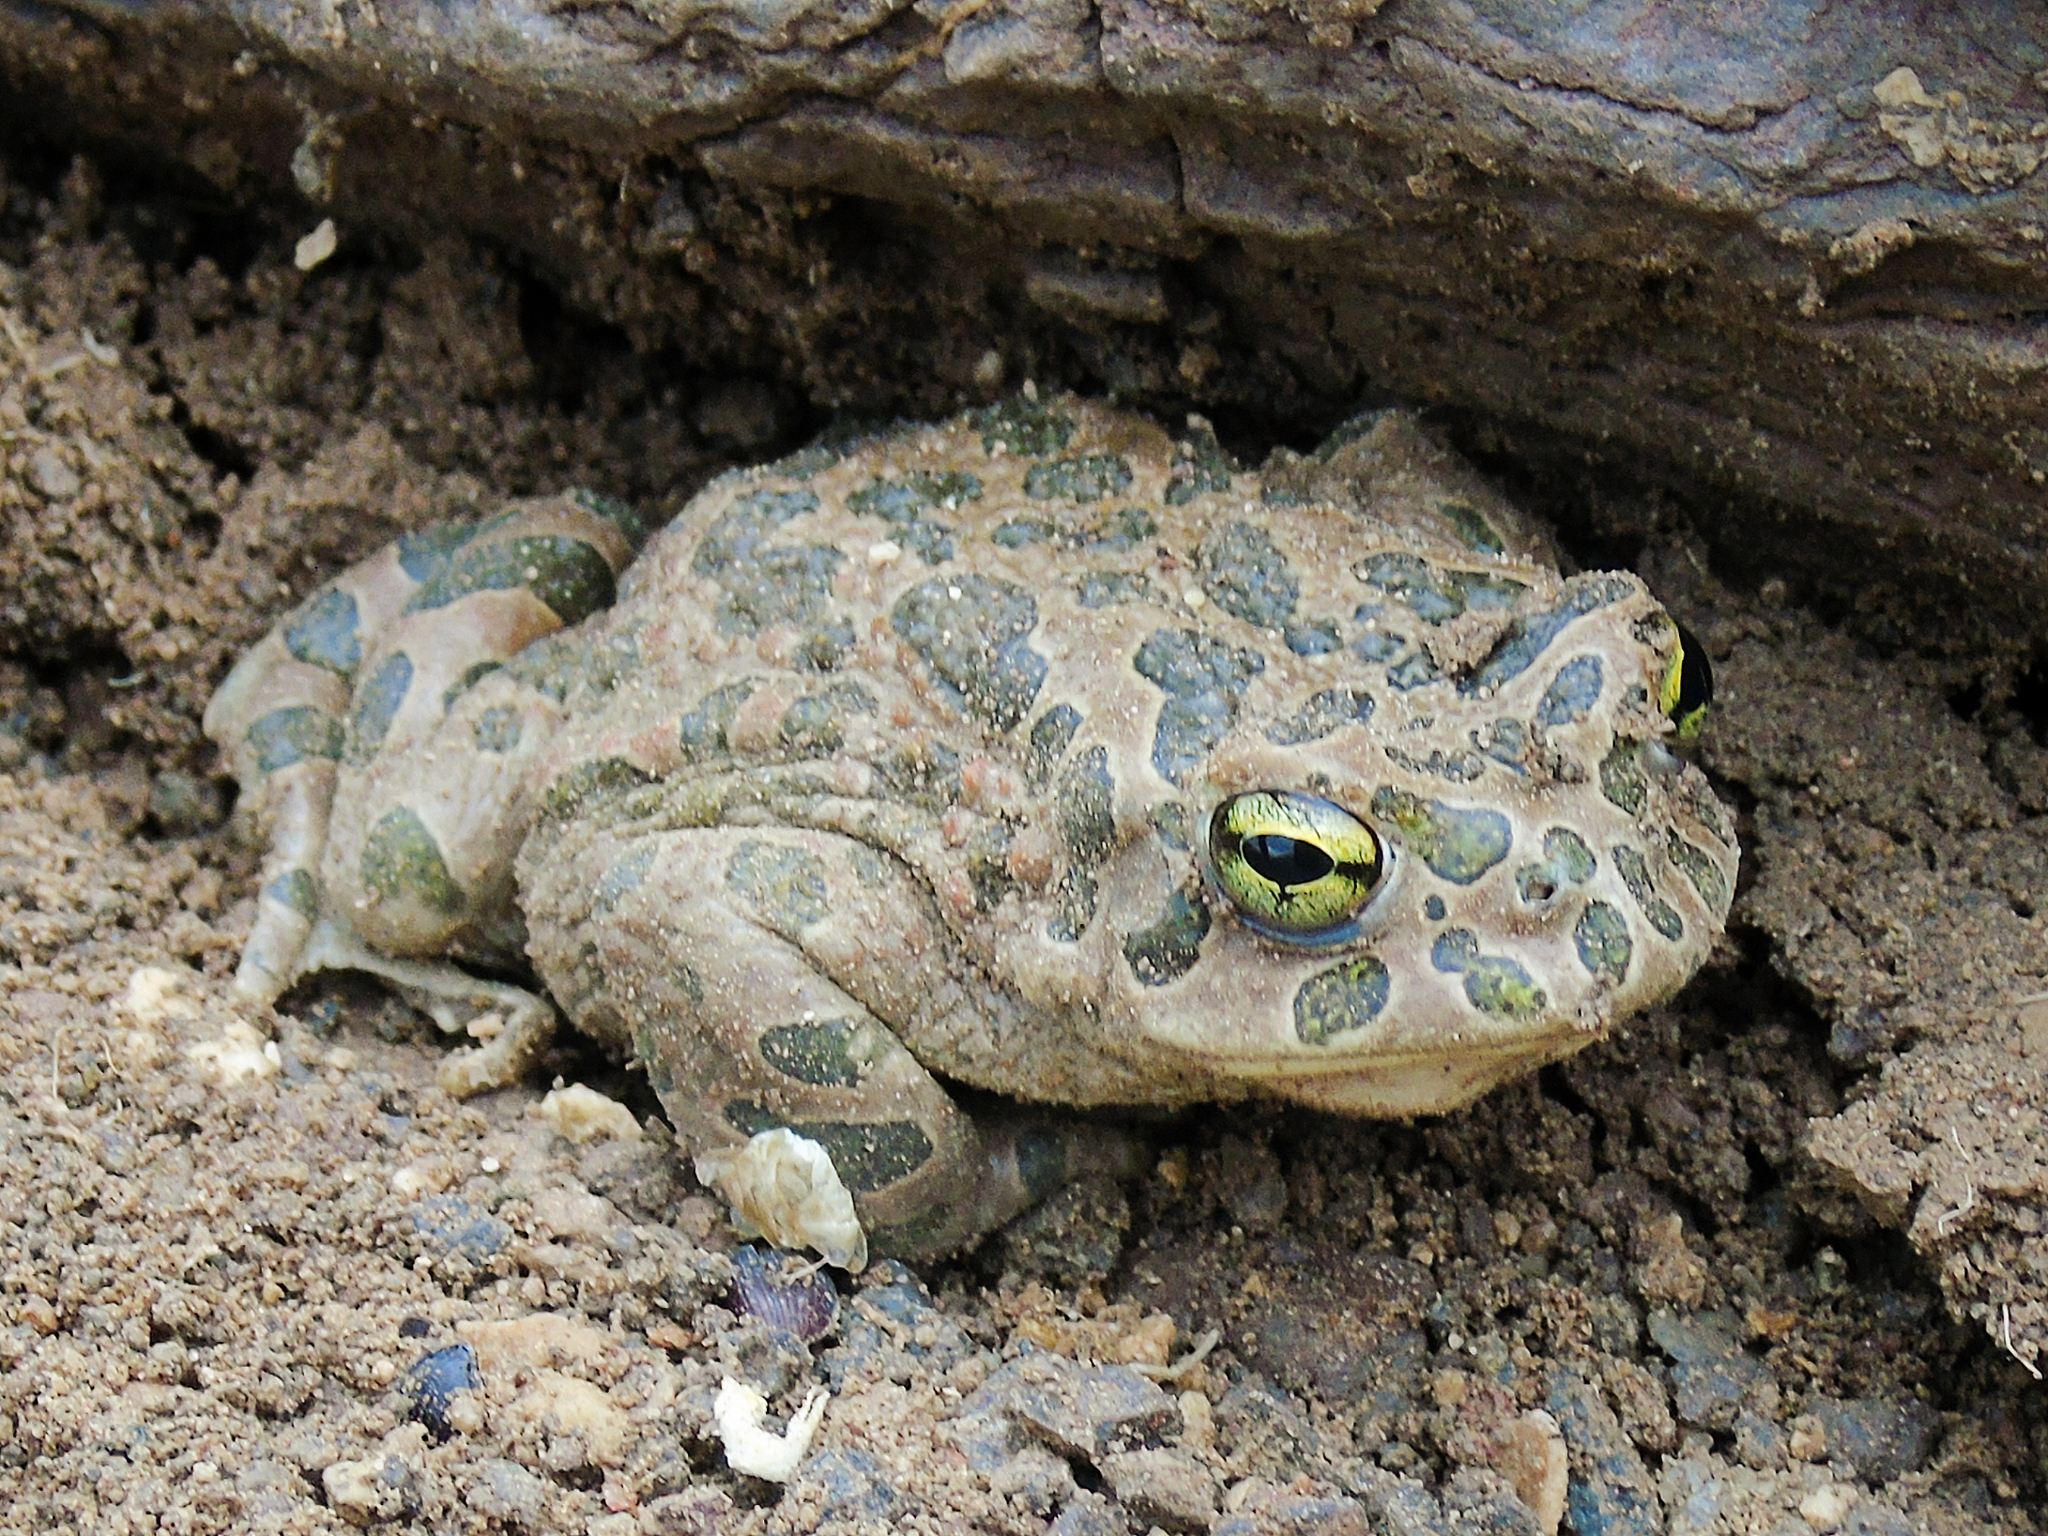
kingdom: Animalia
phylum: Chordata
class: Amphibia
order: Anura
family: Bufonidae
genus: Bufotes
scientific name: Bufotes viridis
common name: European green toad
